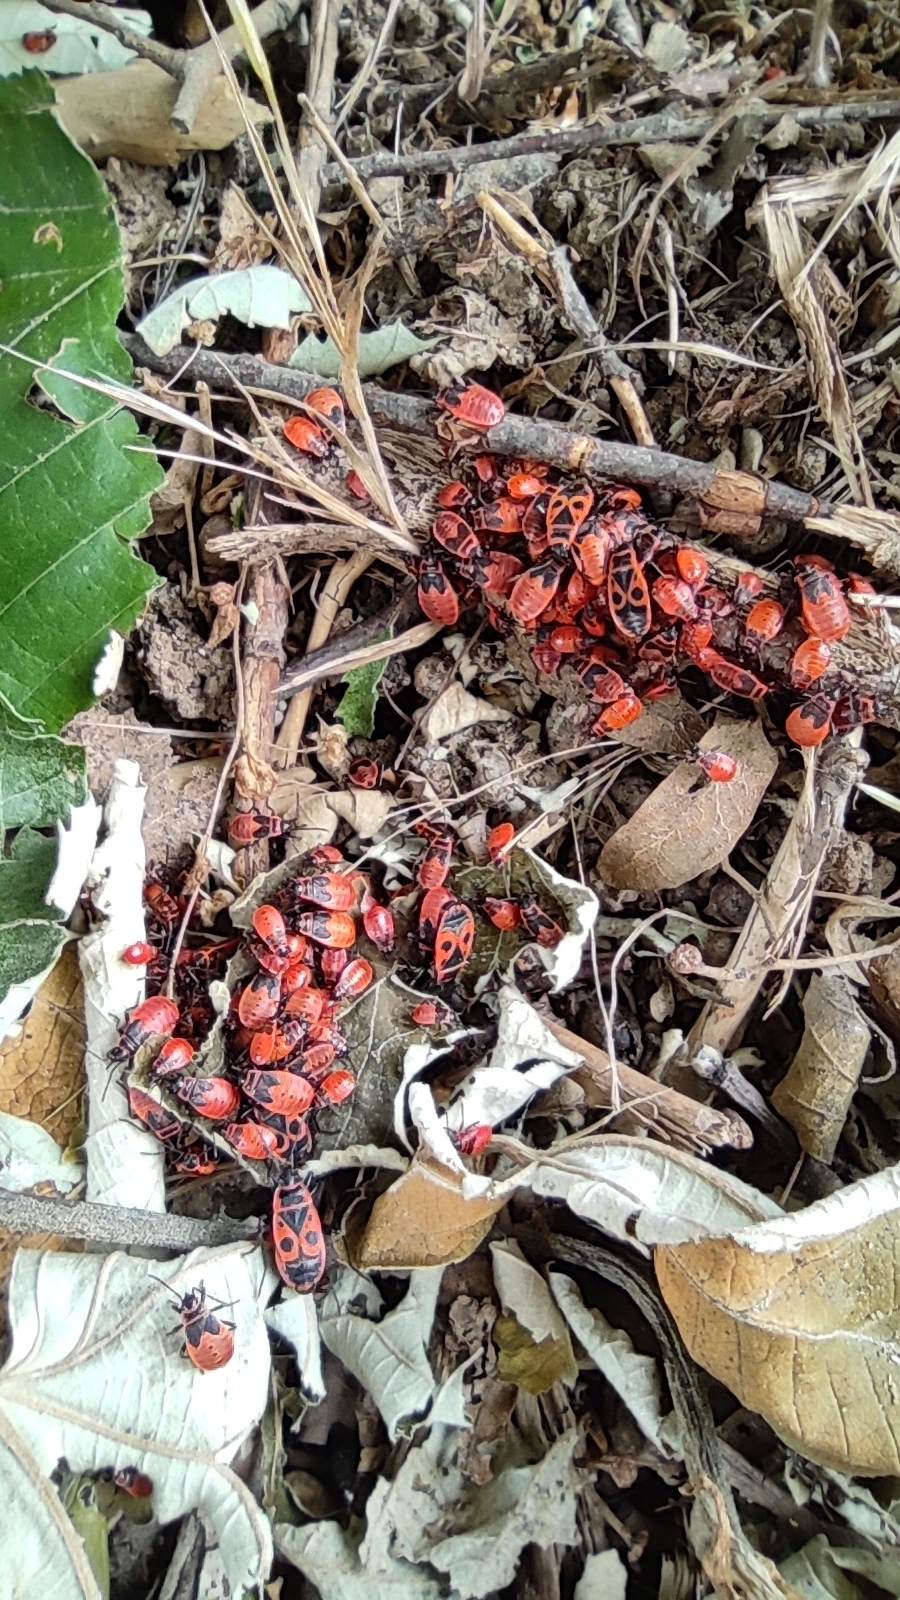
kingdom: Animalia
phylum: Arthropoda
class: Insecta
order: Hemiptera
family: Pyrrhocoridae
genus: Pyrrhocoris
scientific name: Pyrrhocoris apterus
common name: Firebug
